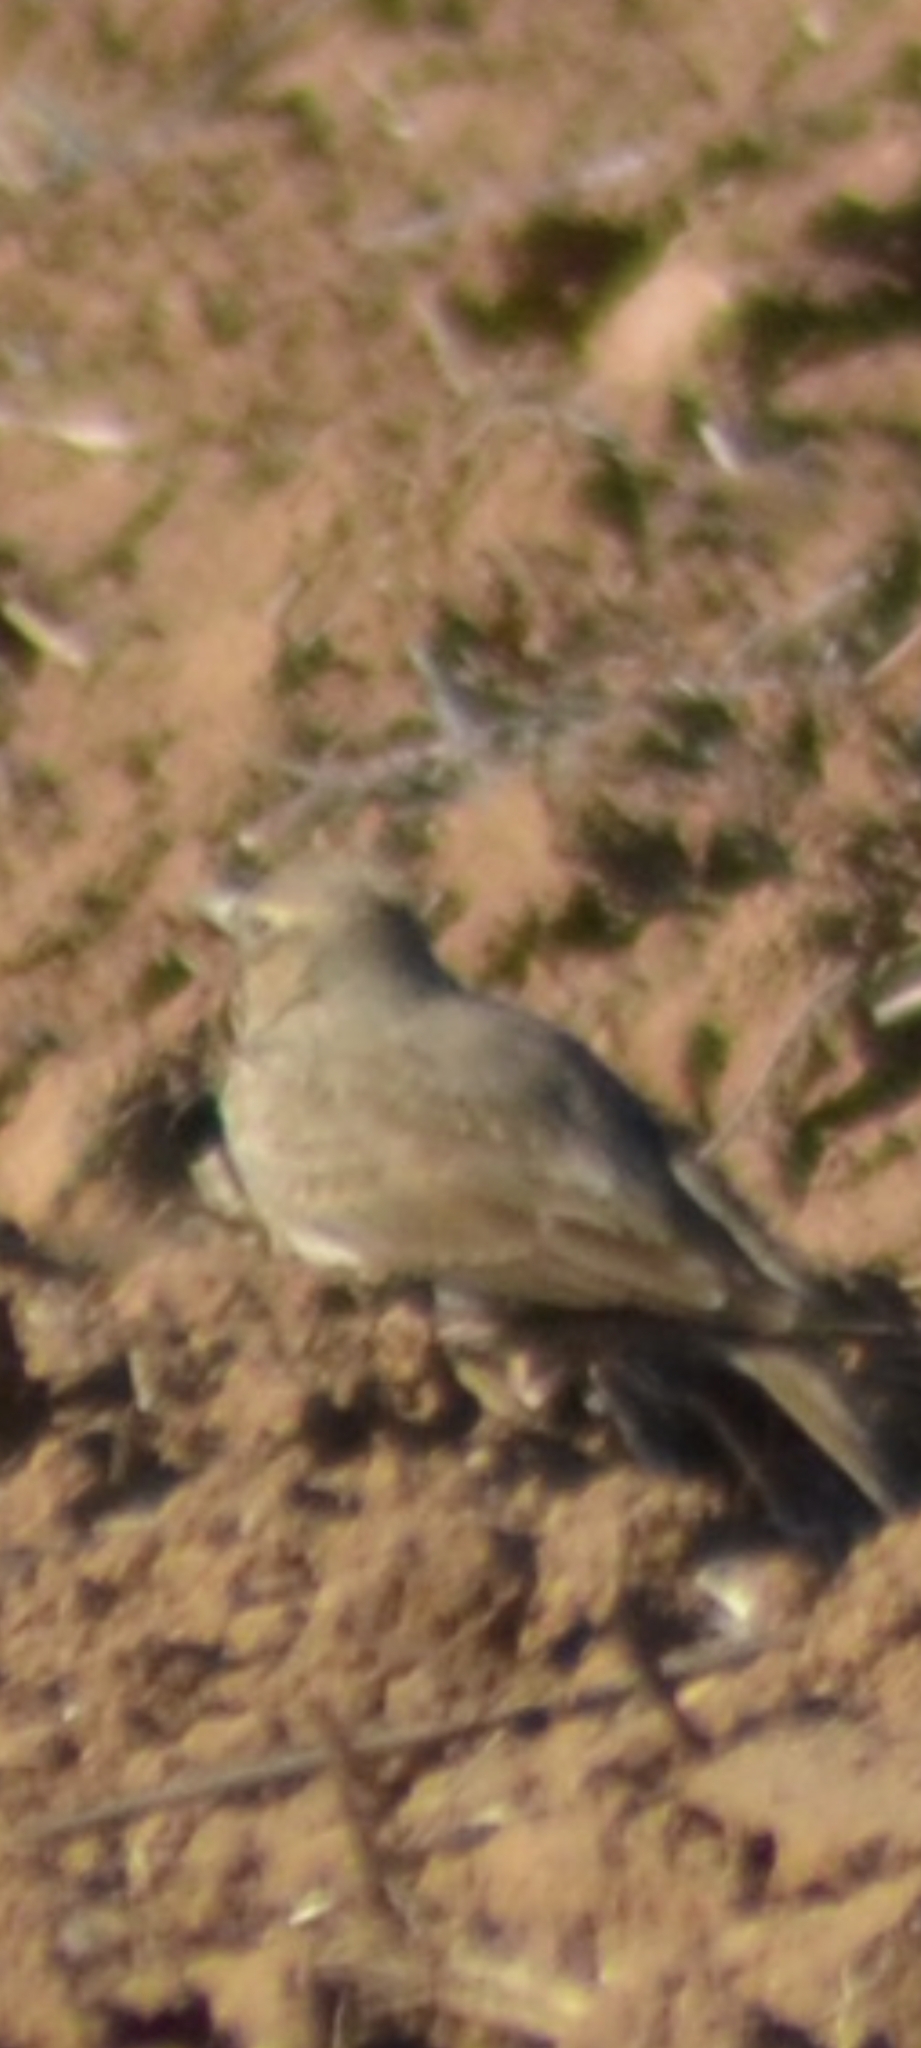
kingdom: Animalia
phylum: Chordata
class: Aves
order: Passeriformes
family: Alaudidae
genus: Galerida
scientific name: Galerida cristata
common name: Crested lark
